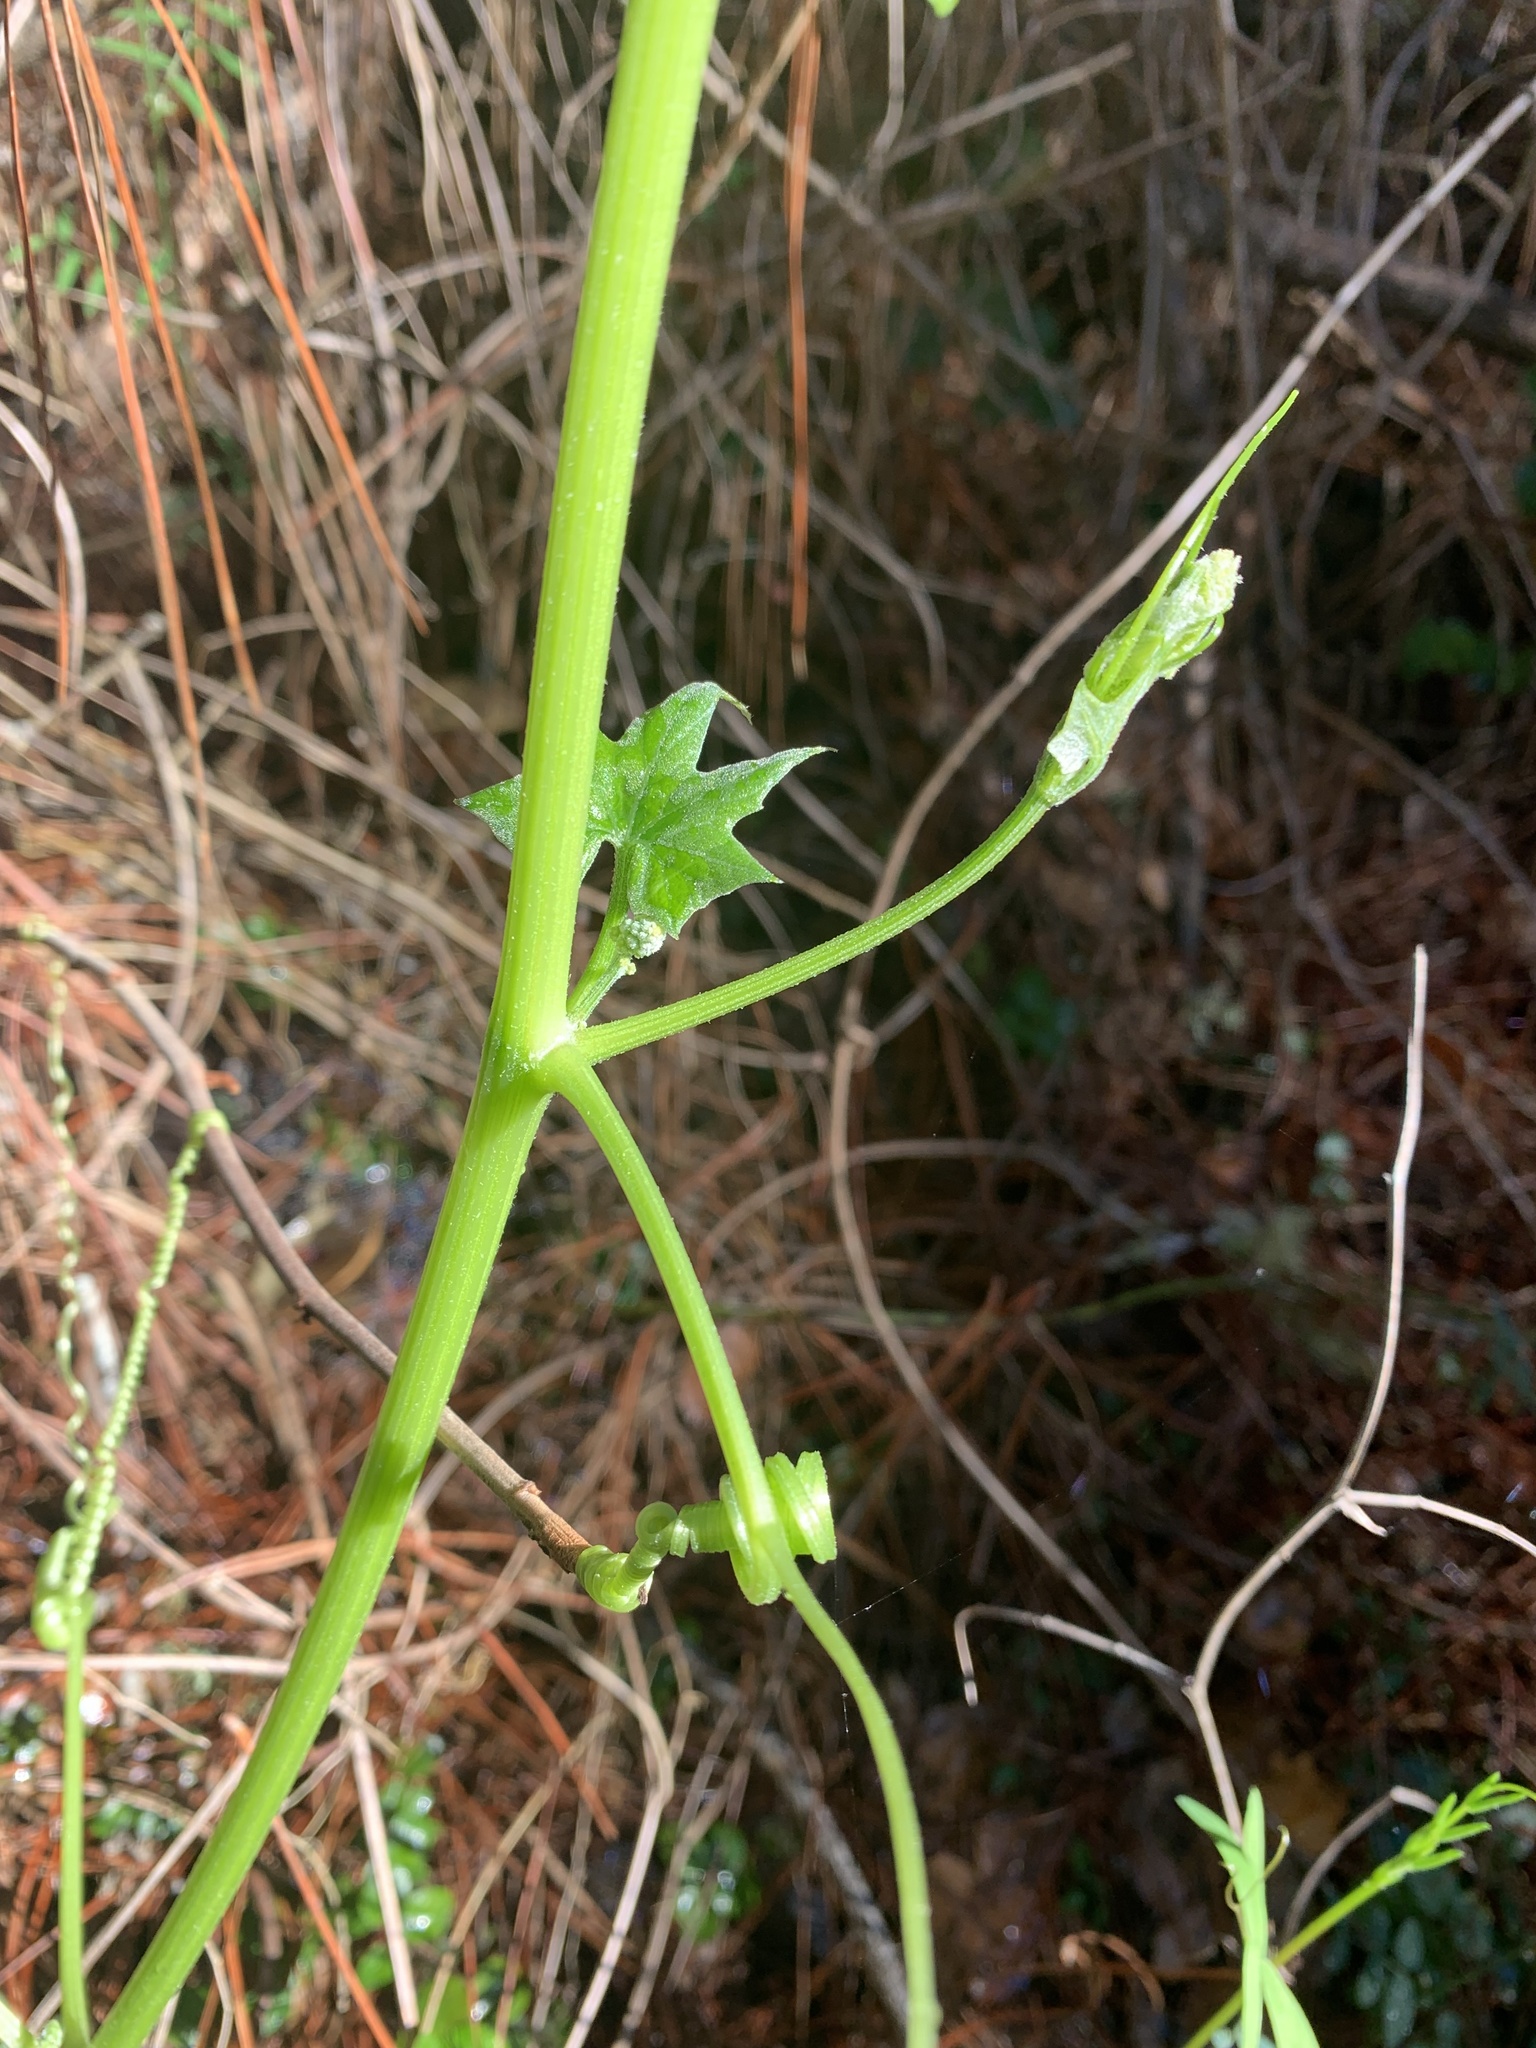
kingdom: Plantae
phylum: Tracheophyta
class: Magnoliopsida
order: Cucurbitales
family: Cucurbitaceae
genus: Marah
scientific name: Marah fabacea
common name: California manroot
